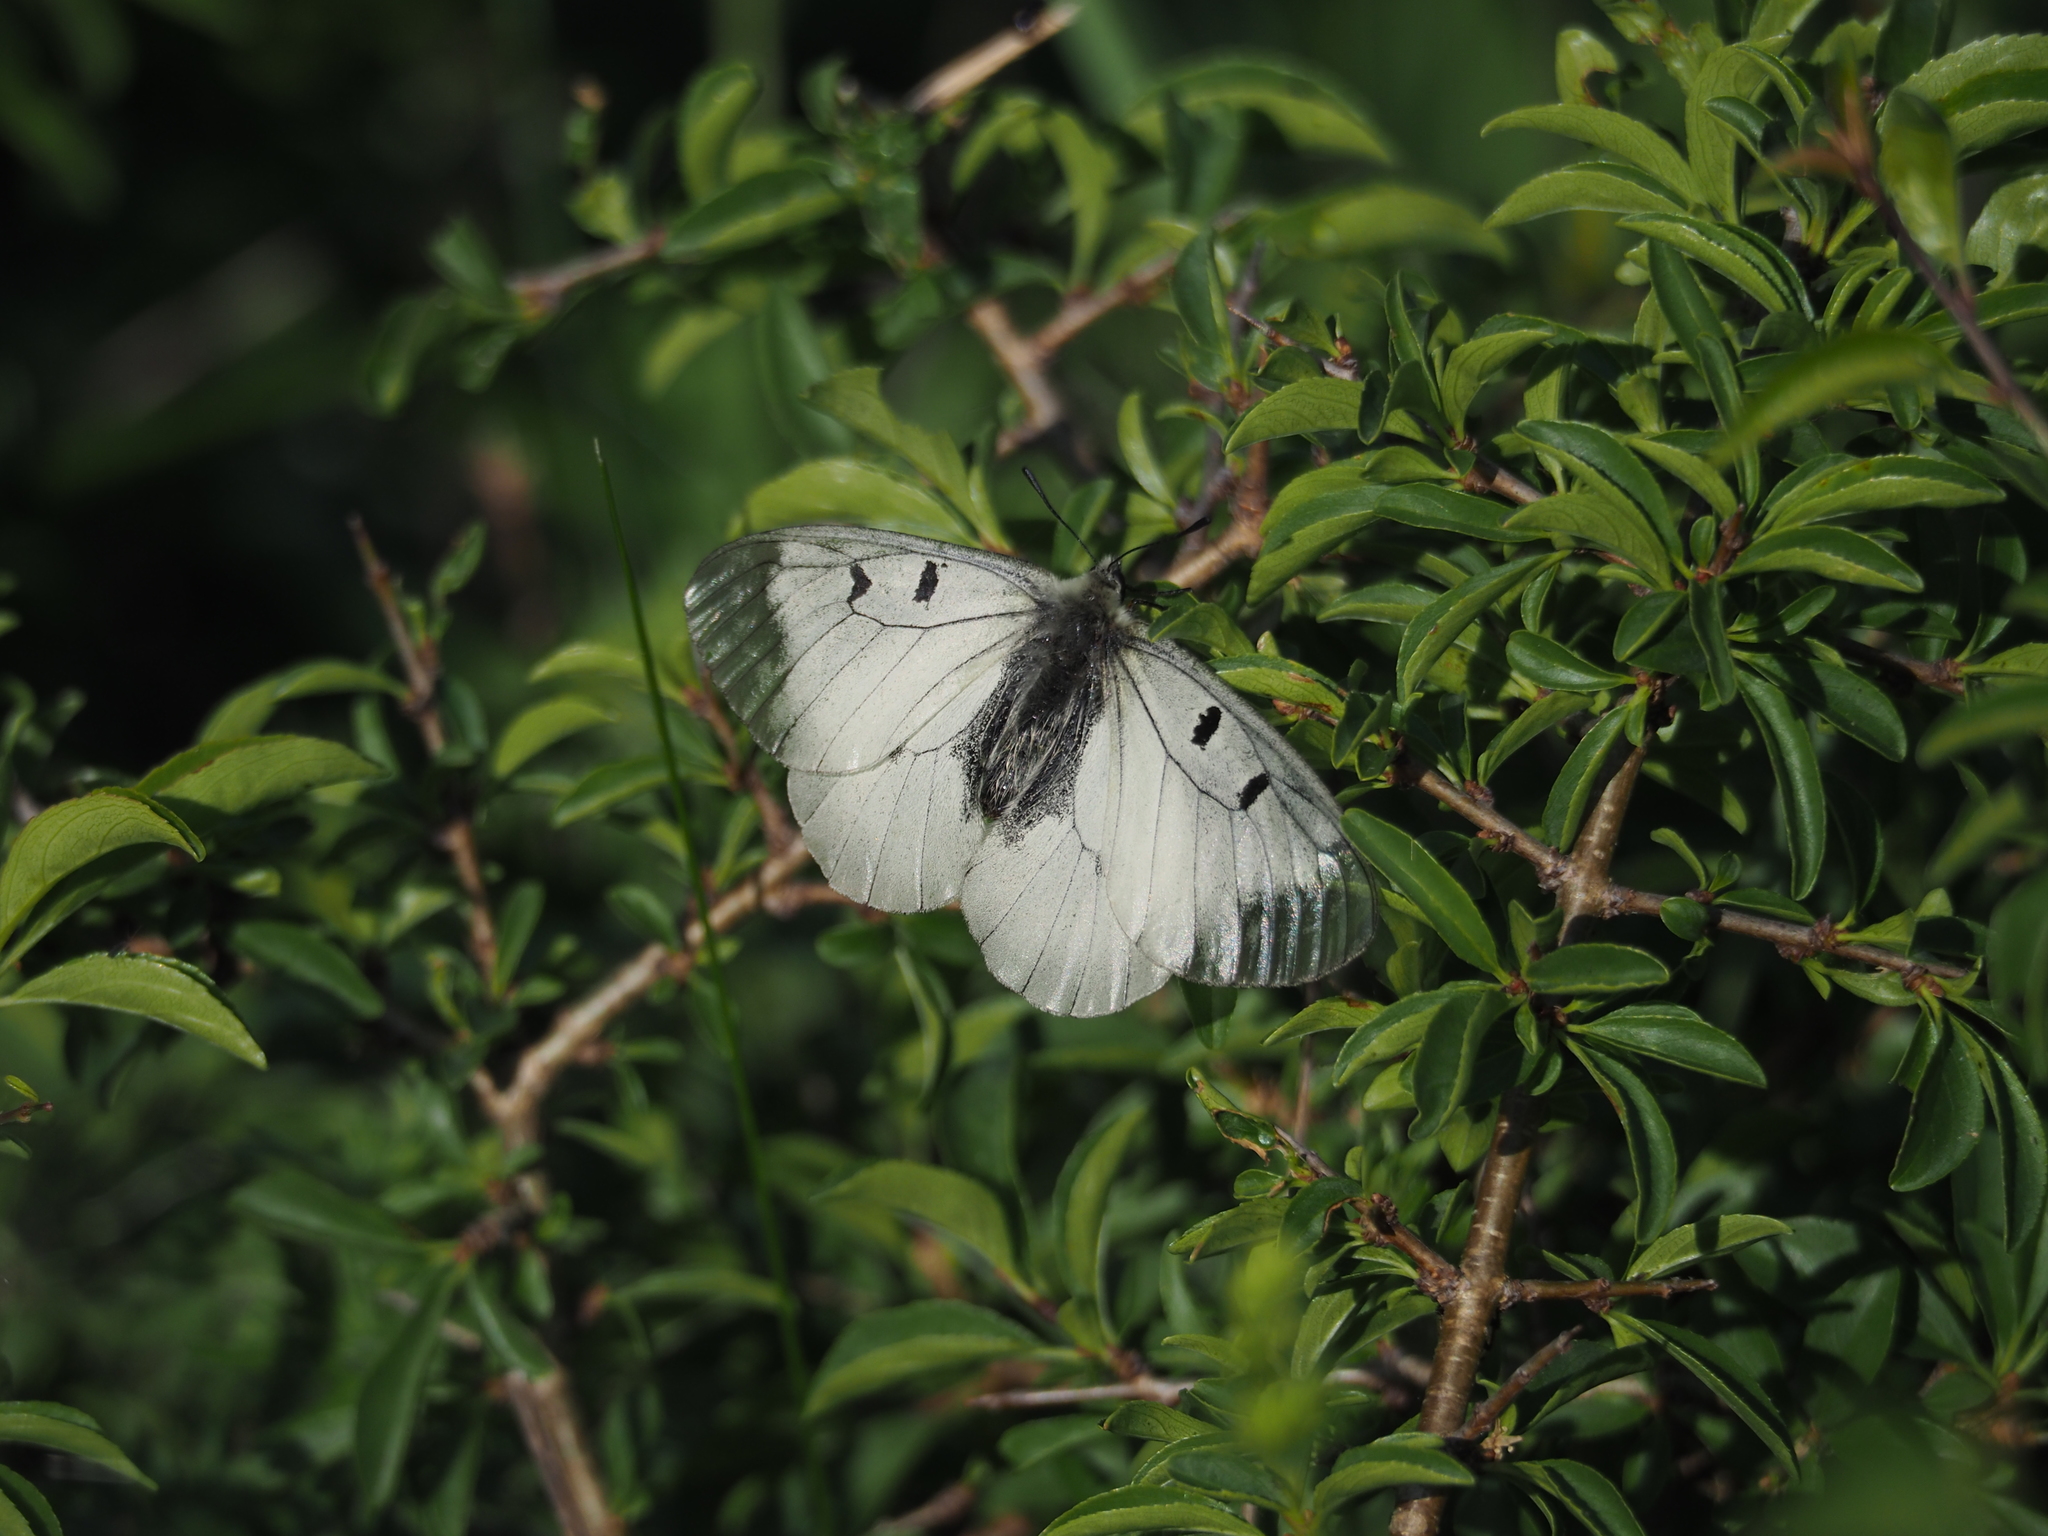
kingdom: Animalia
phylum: Arthropoda
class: Insecta
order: Lepidoptera
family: Papilionidae
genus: Parnassius
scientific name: Parnassius mnemosyne
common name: Clouded apollo
